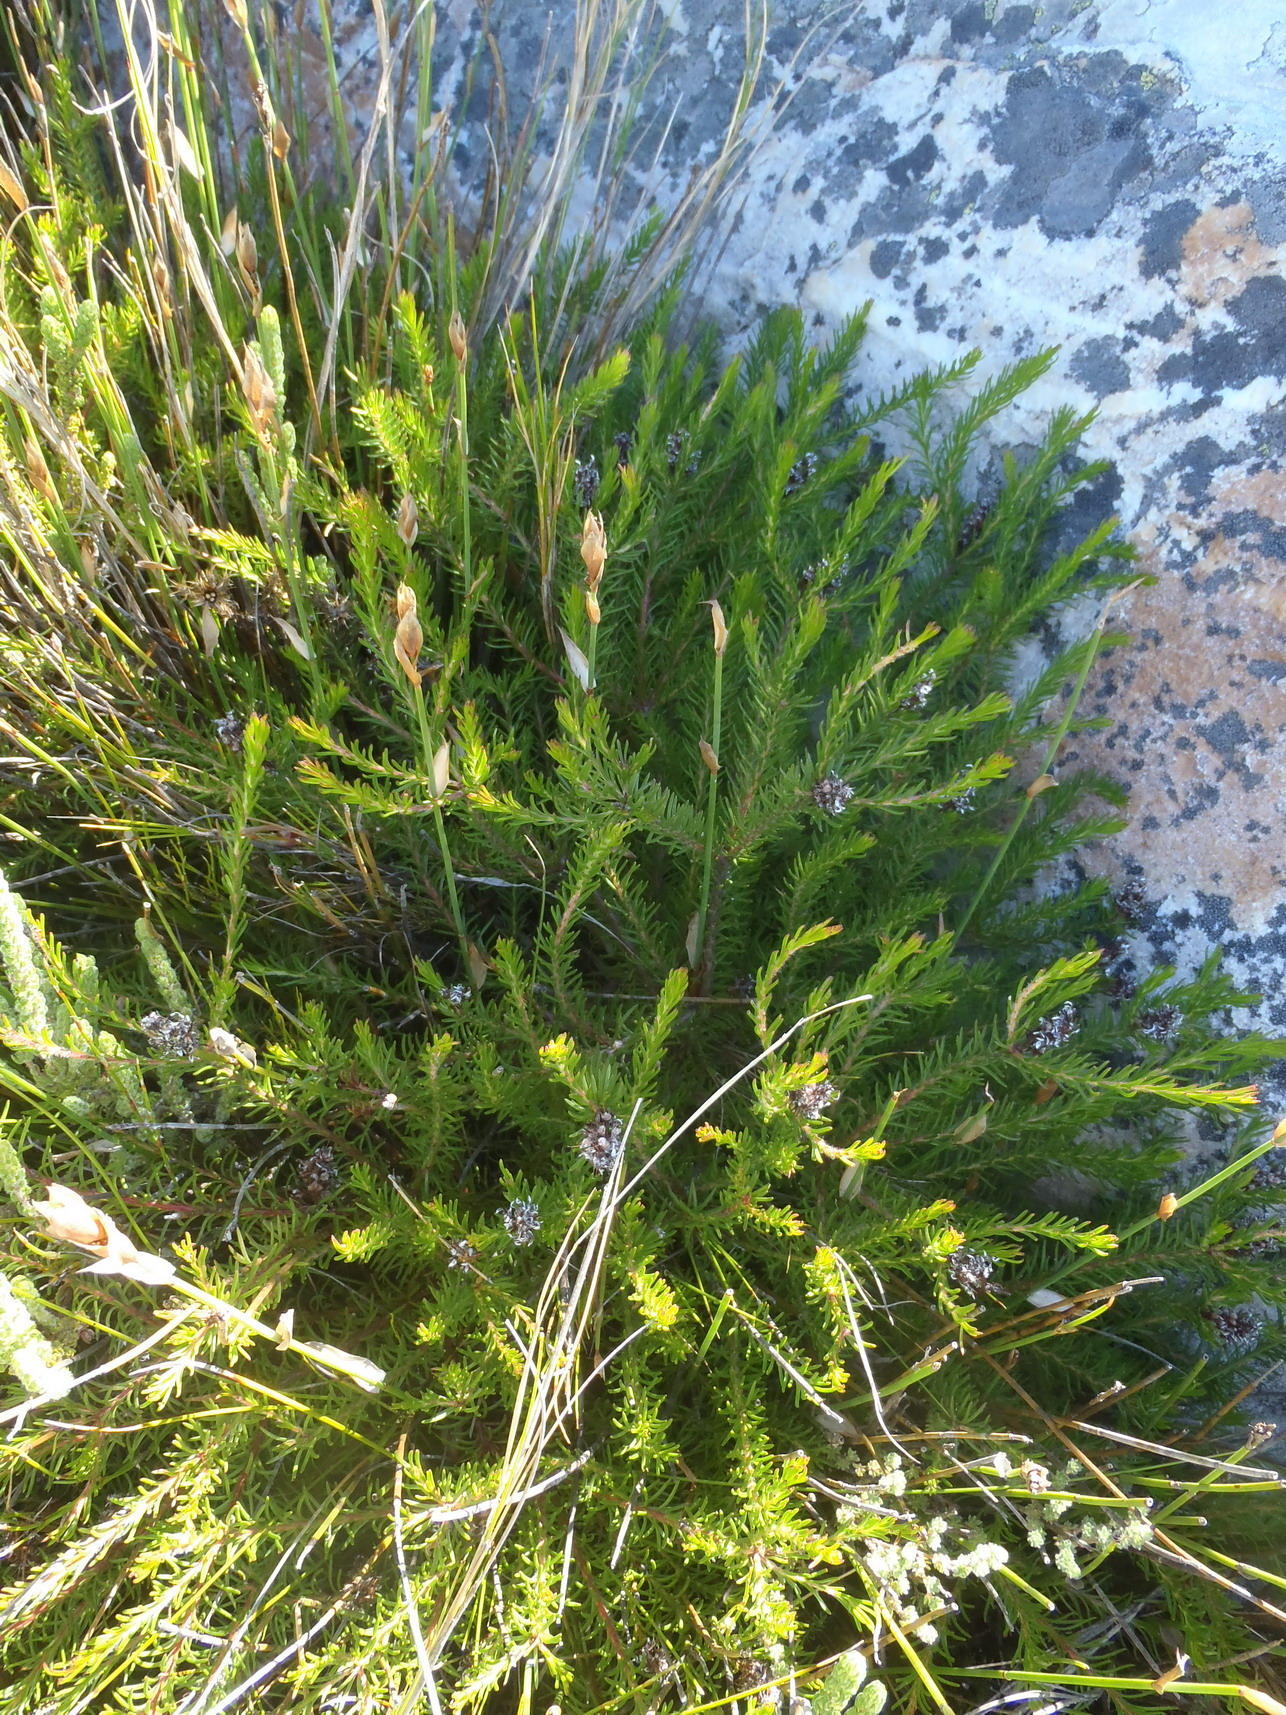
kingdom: Plantae
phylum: Tracheophyta
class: Magnoliopsida
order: Proteales
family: Proteaceae
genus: Spatalla
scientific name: Spatalla confusa
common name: Long-tube spoon
